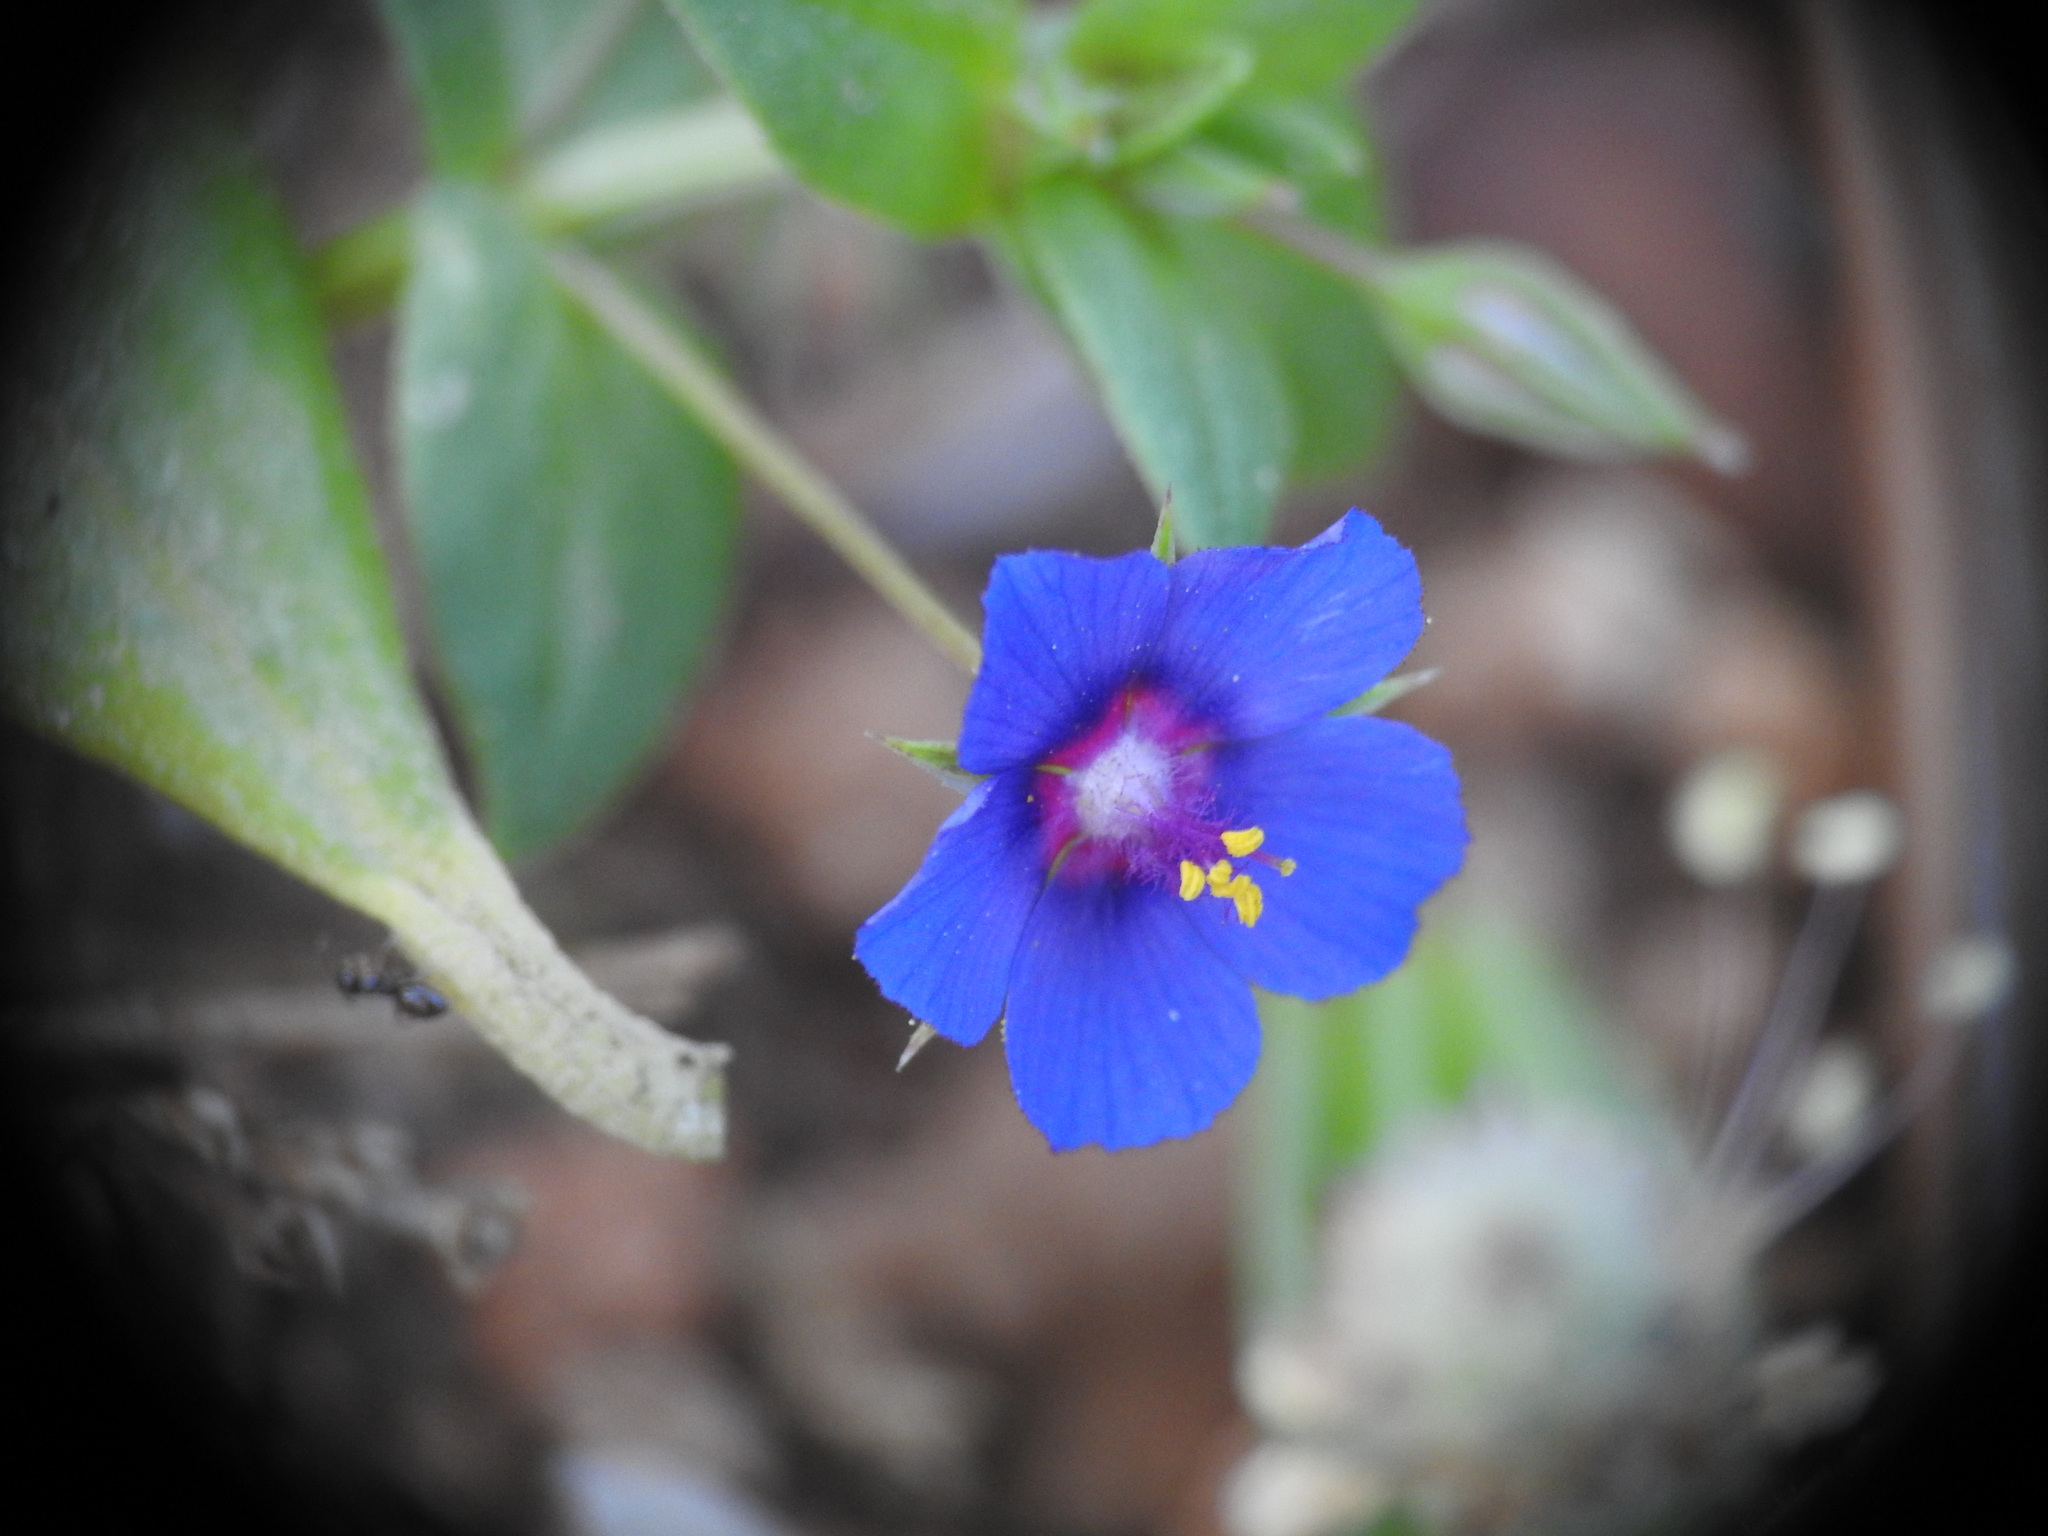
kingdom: Plantae
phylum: Tracheophyta
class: Magnoliopsida
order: Ericales
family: Primulaceae
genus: Lysimachia
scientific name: Lysimachia loeflingii
